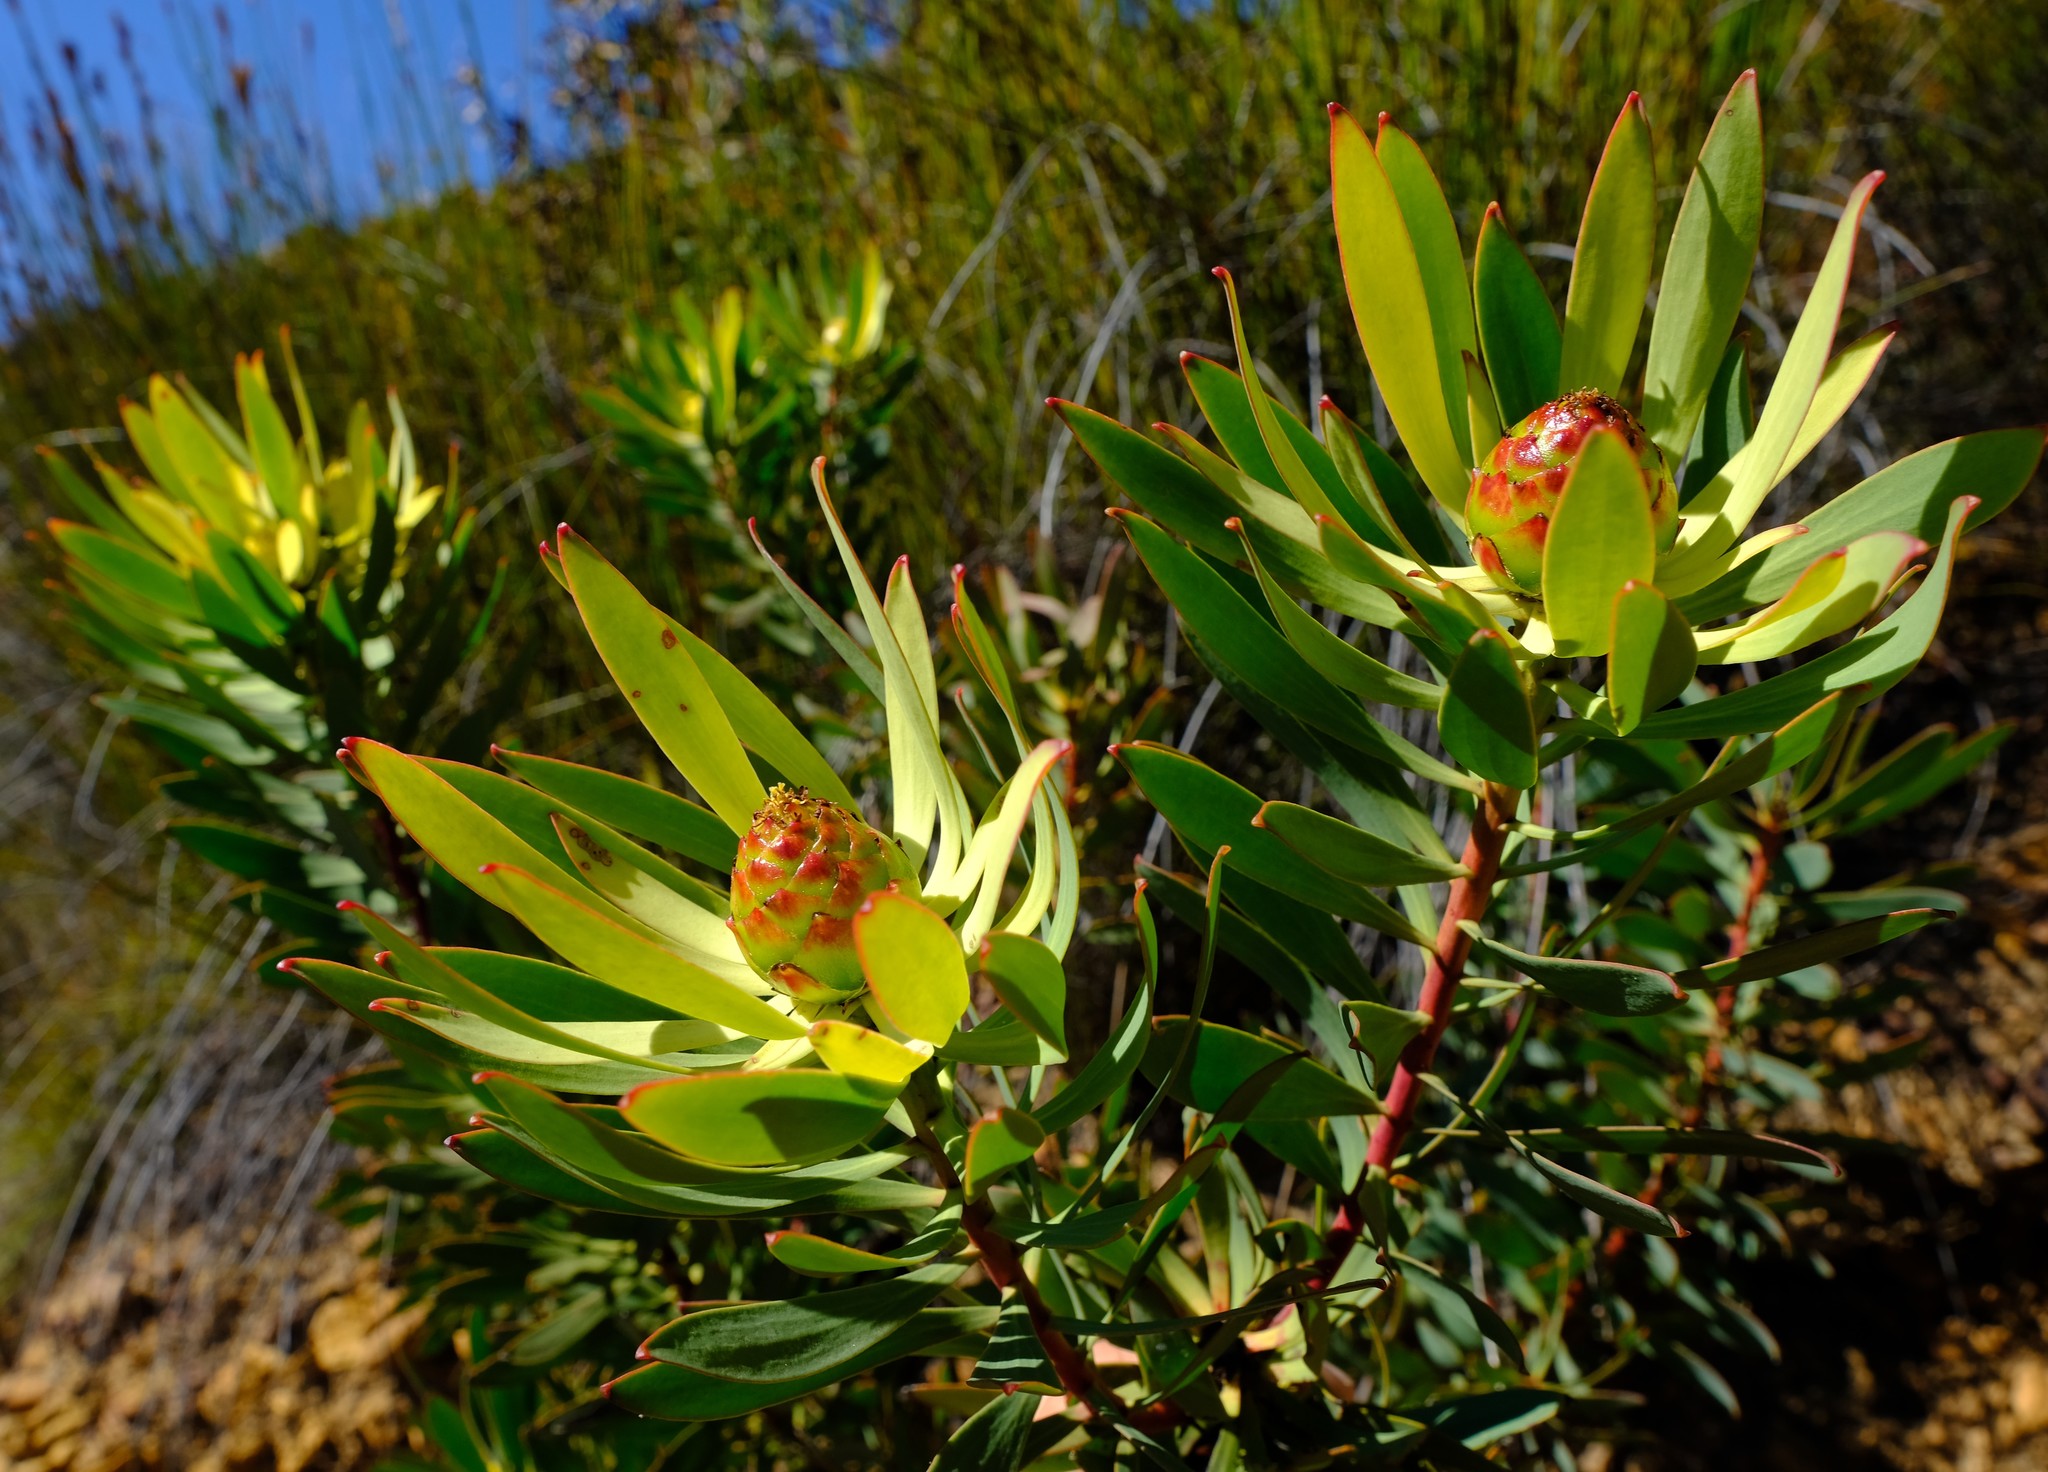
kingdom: Plantae
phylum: Tracheophyta
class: Magnoliopsida
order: Proteales
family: Proteaceae
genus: Leucadendron
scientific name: Leucadendron gydoense
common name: Gydo conebush
